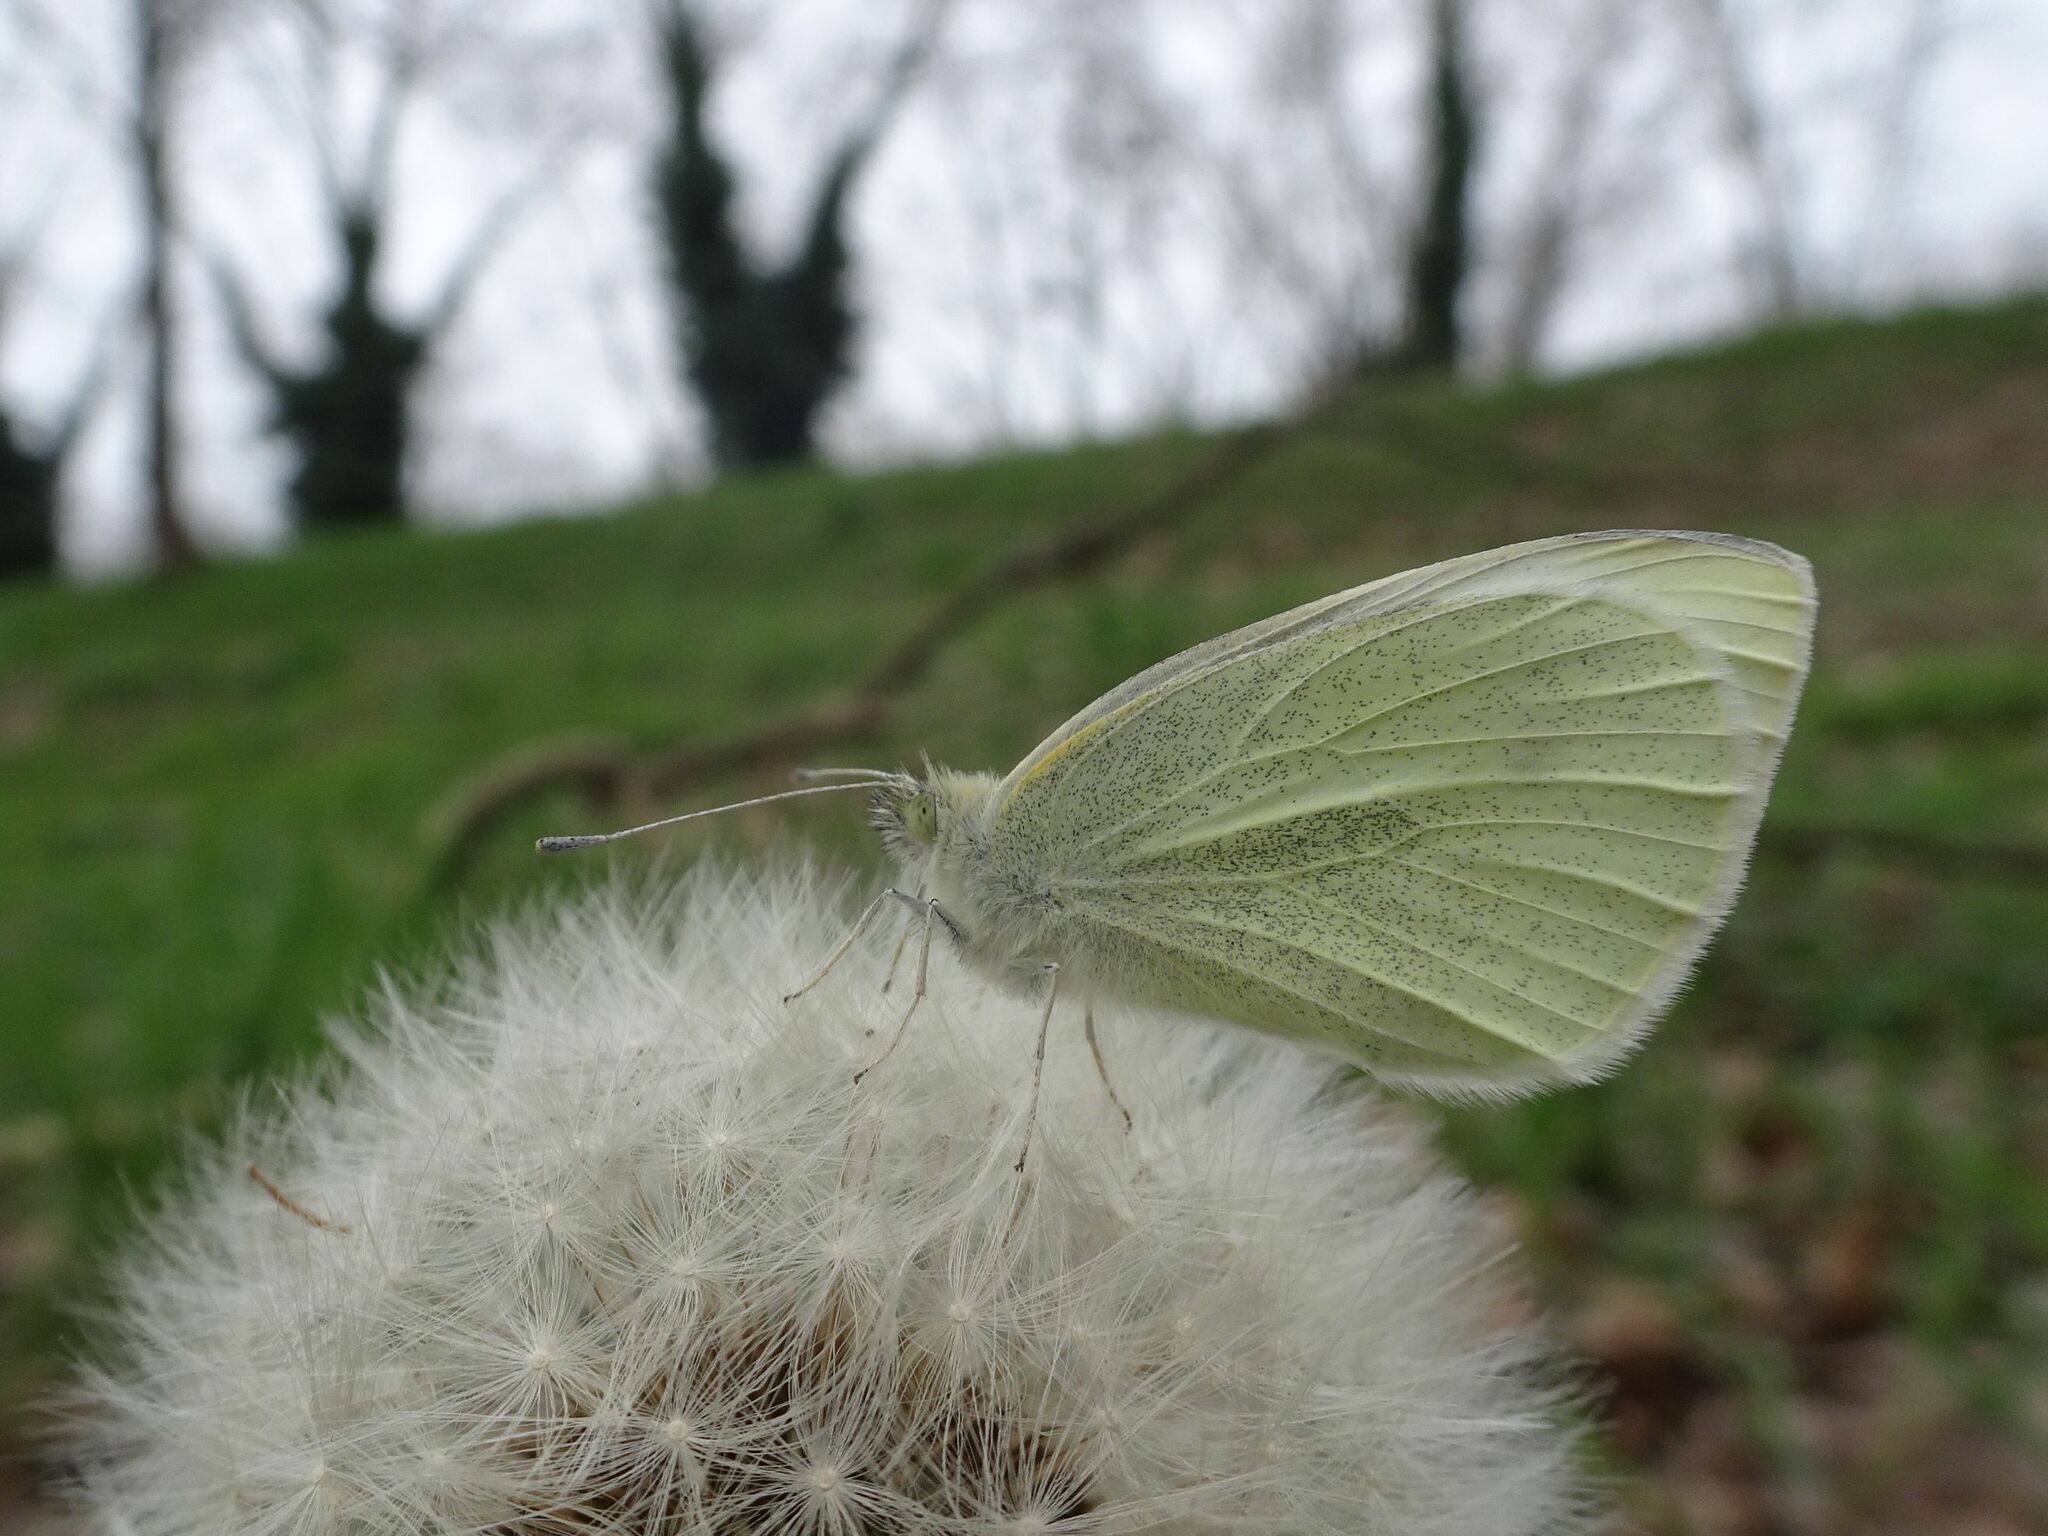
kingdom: Animalia
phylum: Arthropoda
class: Insecta
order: Lepidoptera
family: Pieridae
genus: Pieris
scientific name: Pieris rapae
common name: Small white
